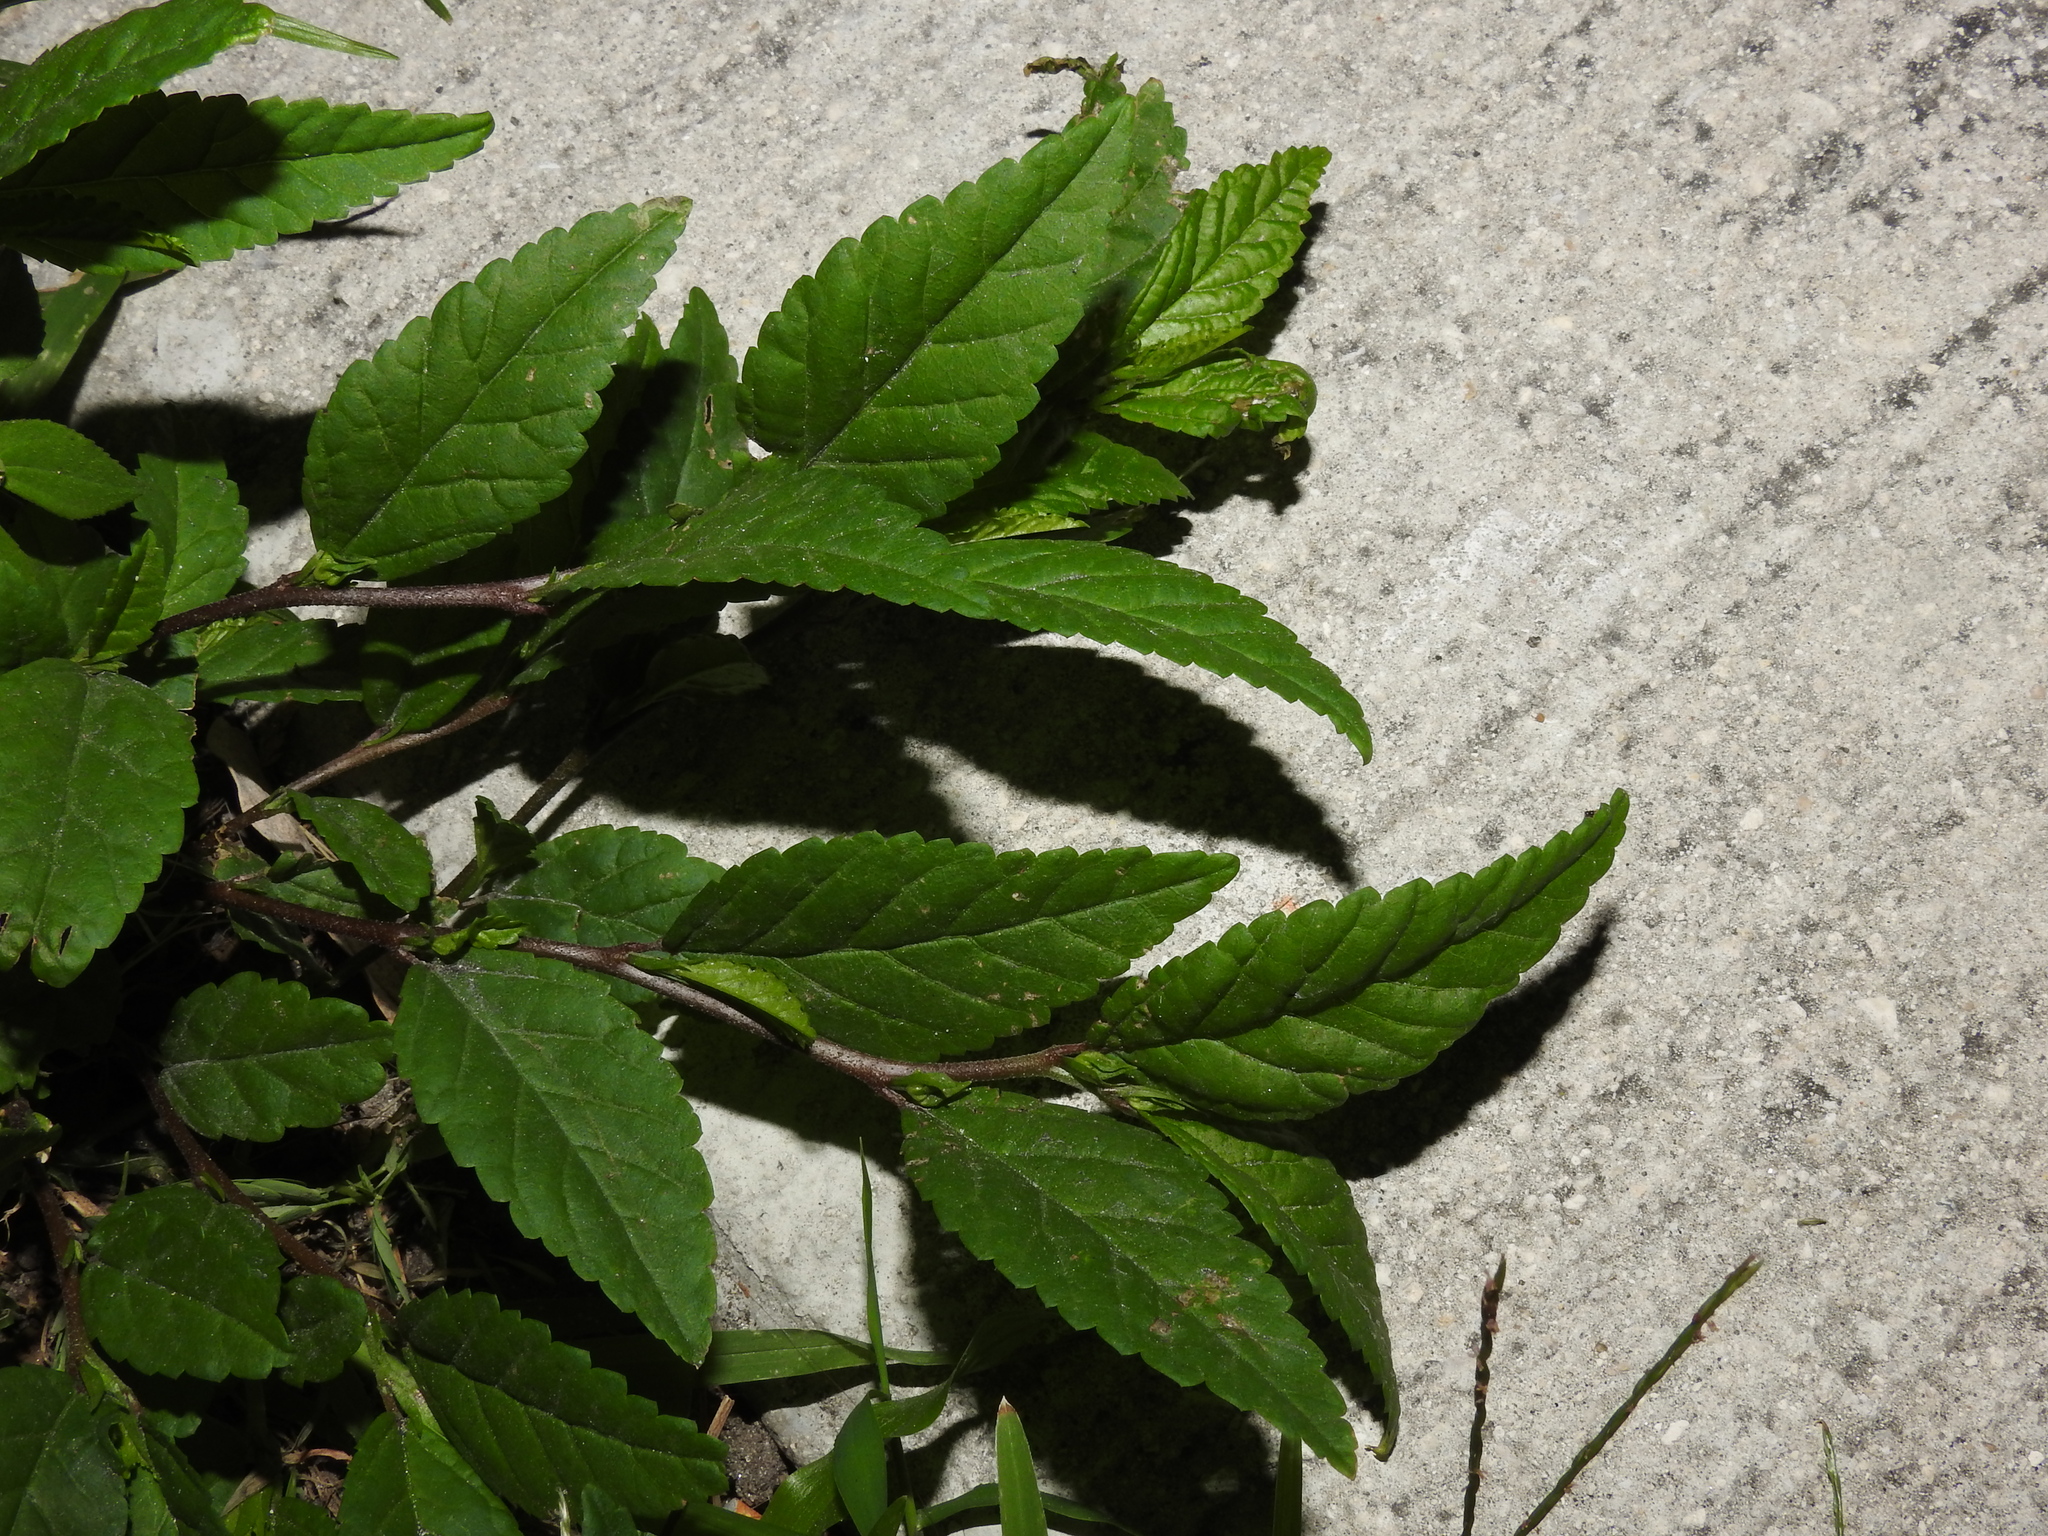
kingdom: Plantae
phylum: Tracheophyta
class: Magnoliopsida
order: Malvales
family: Malvaceae
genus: Sida
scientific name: Sida ulmifolia
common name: Broom weed
